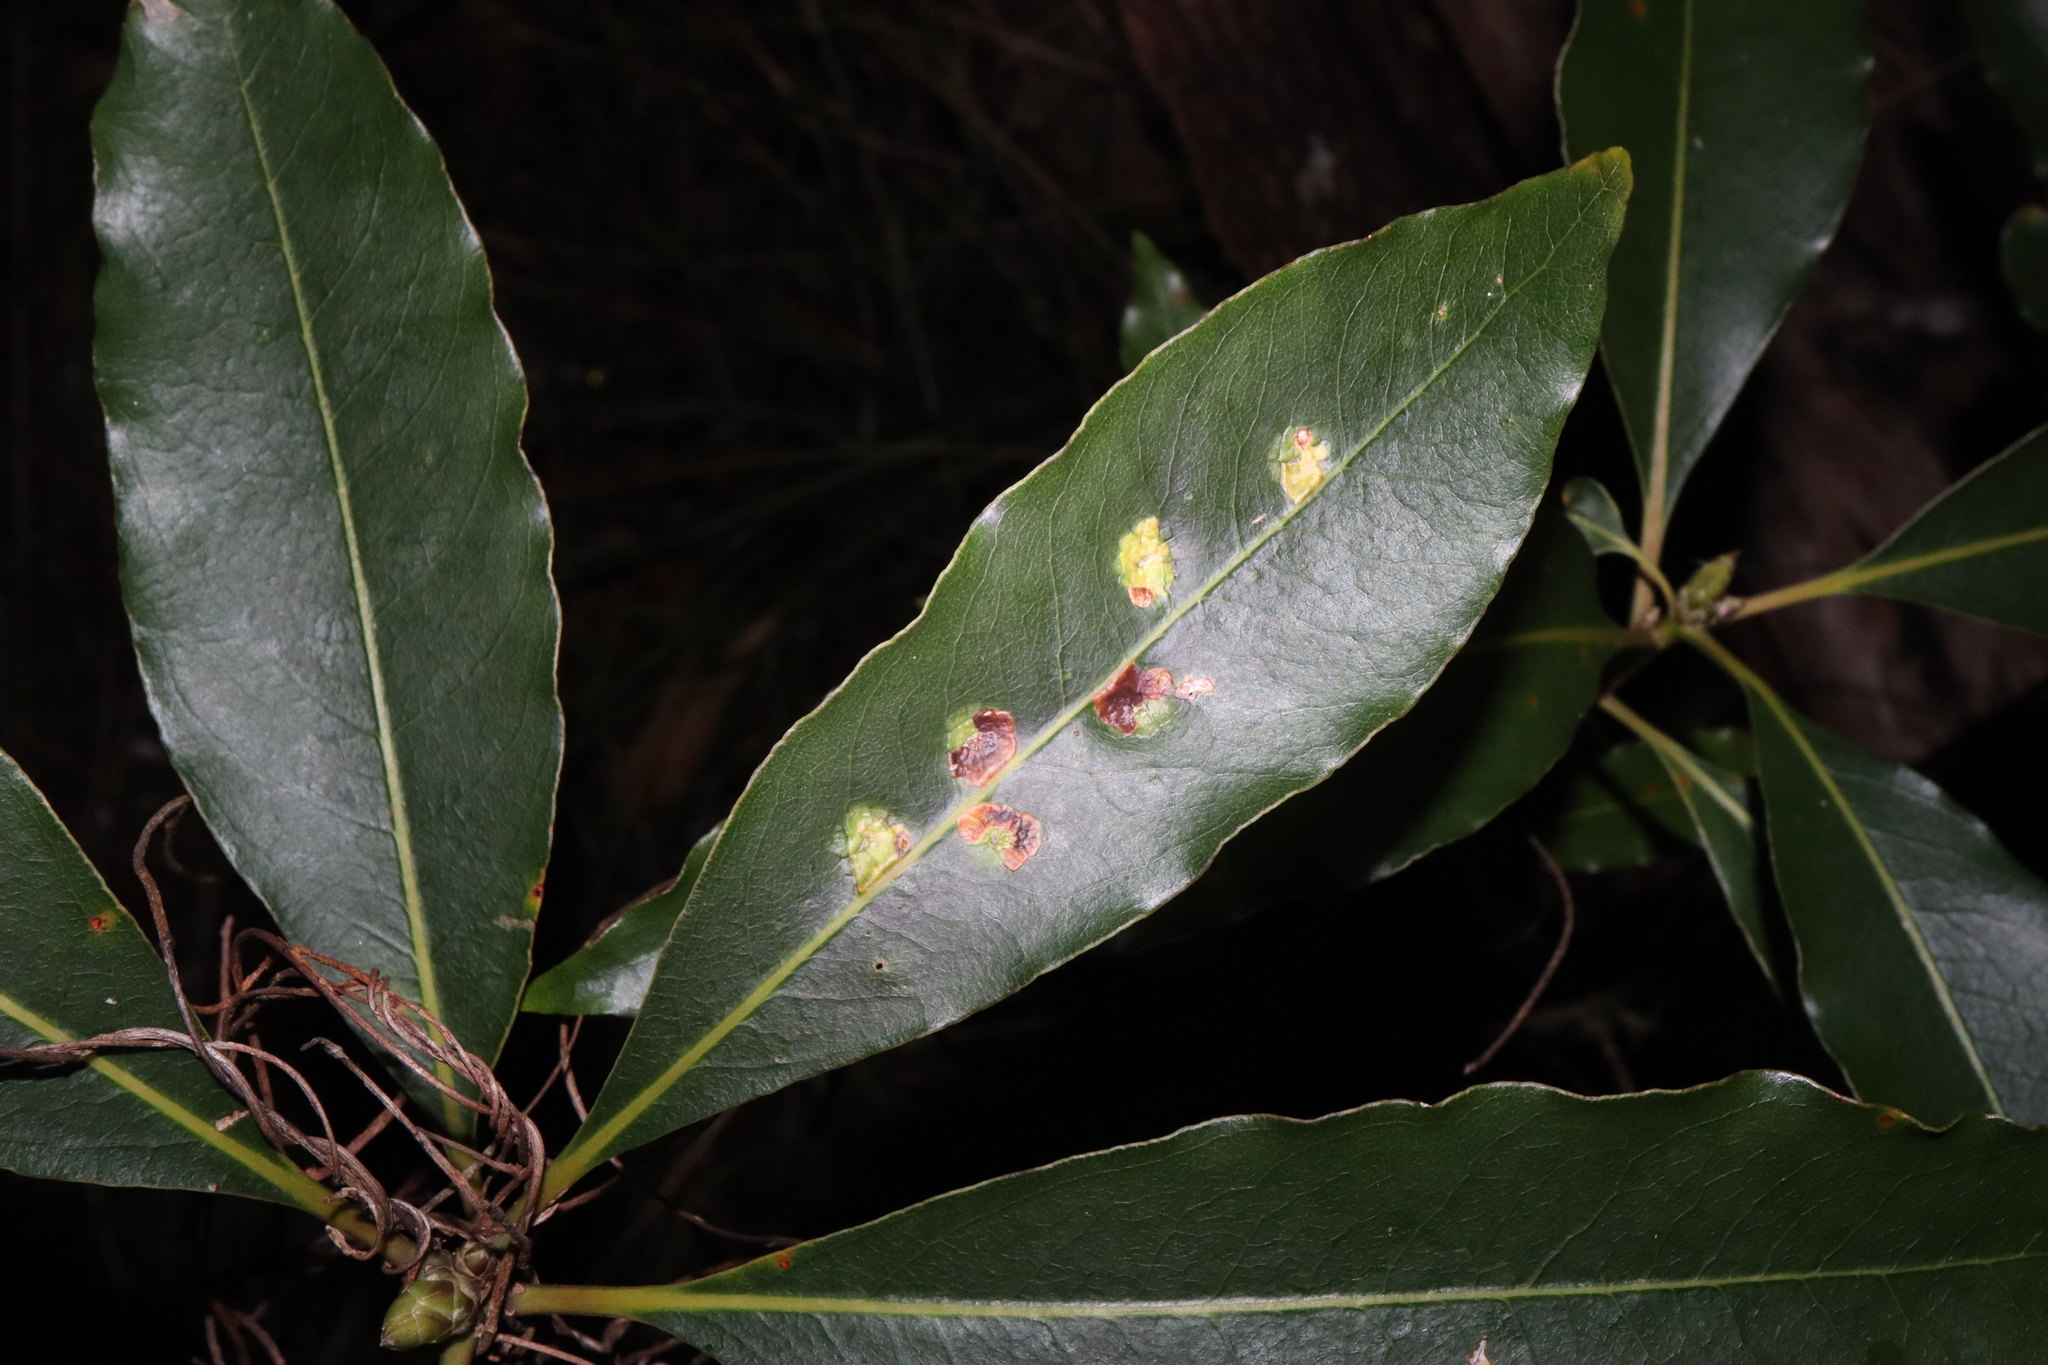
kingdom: Animalia
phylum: Arthropoda
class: Insecta
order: Diptera
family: Agromyzidae
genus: Phytoliriomyza
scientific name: Phytoliriomyza pittosporophylli
